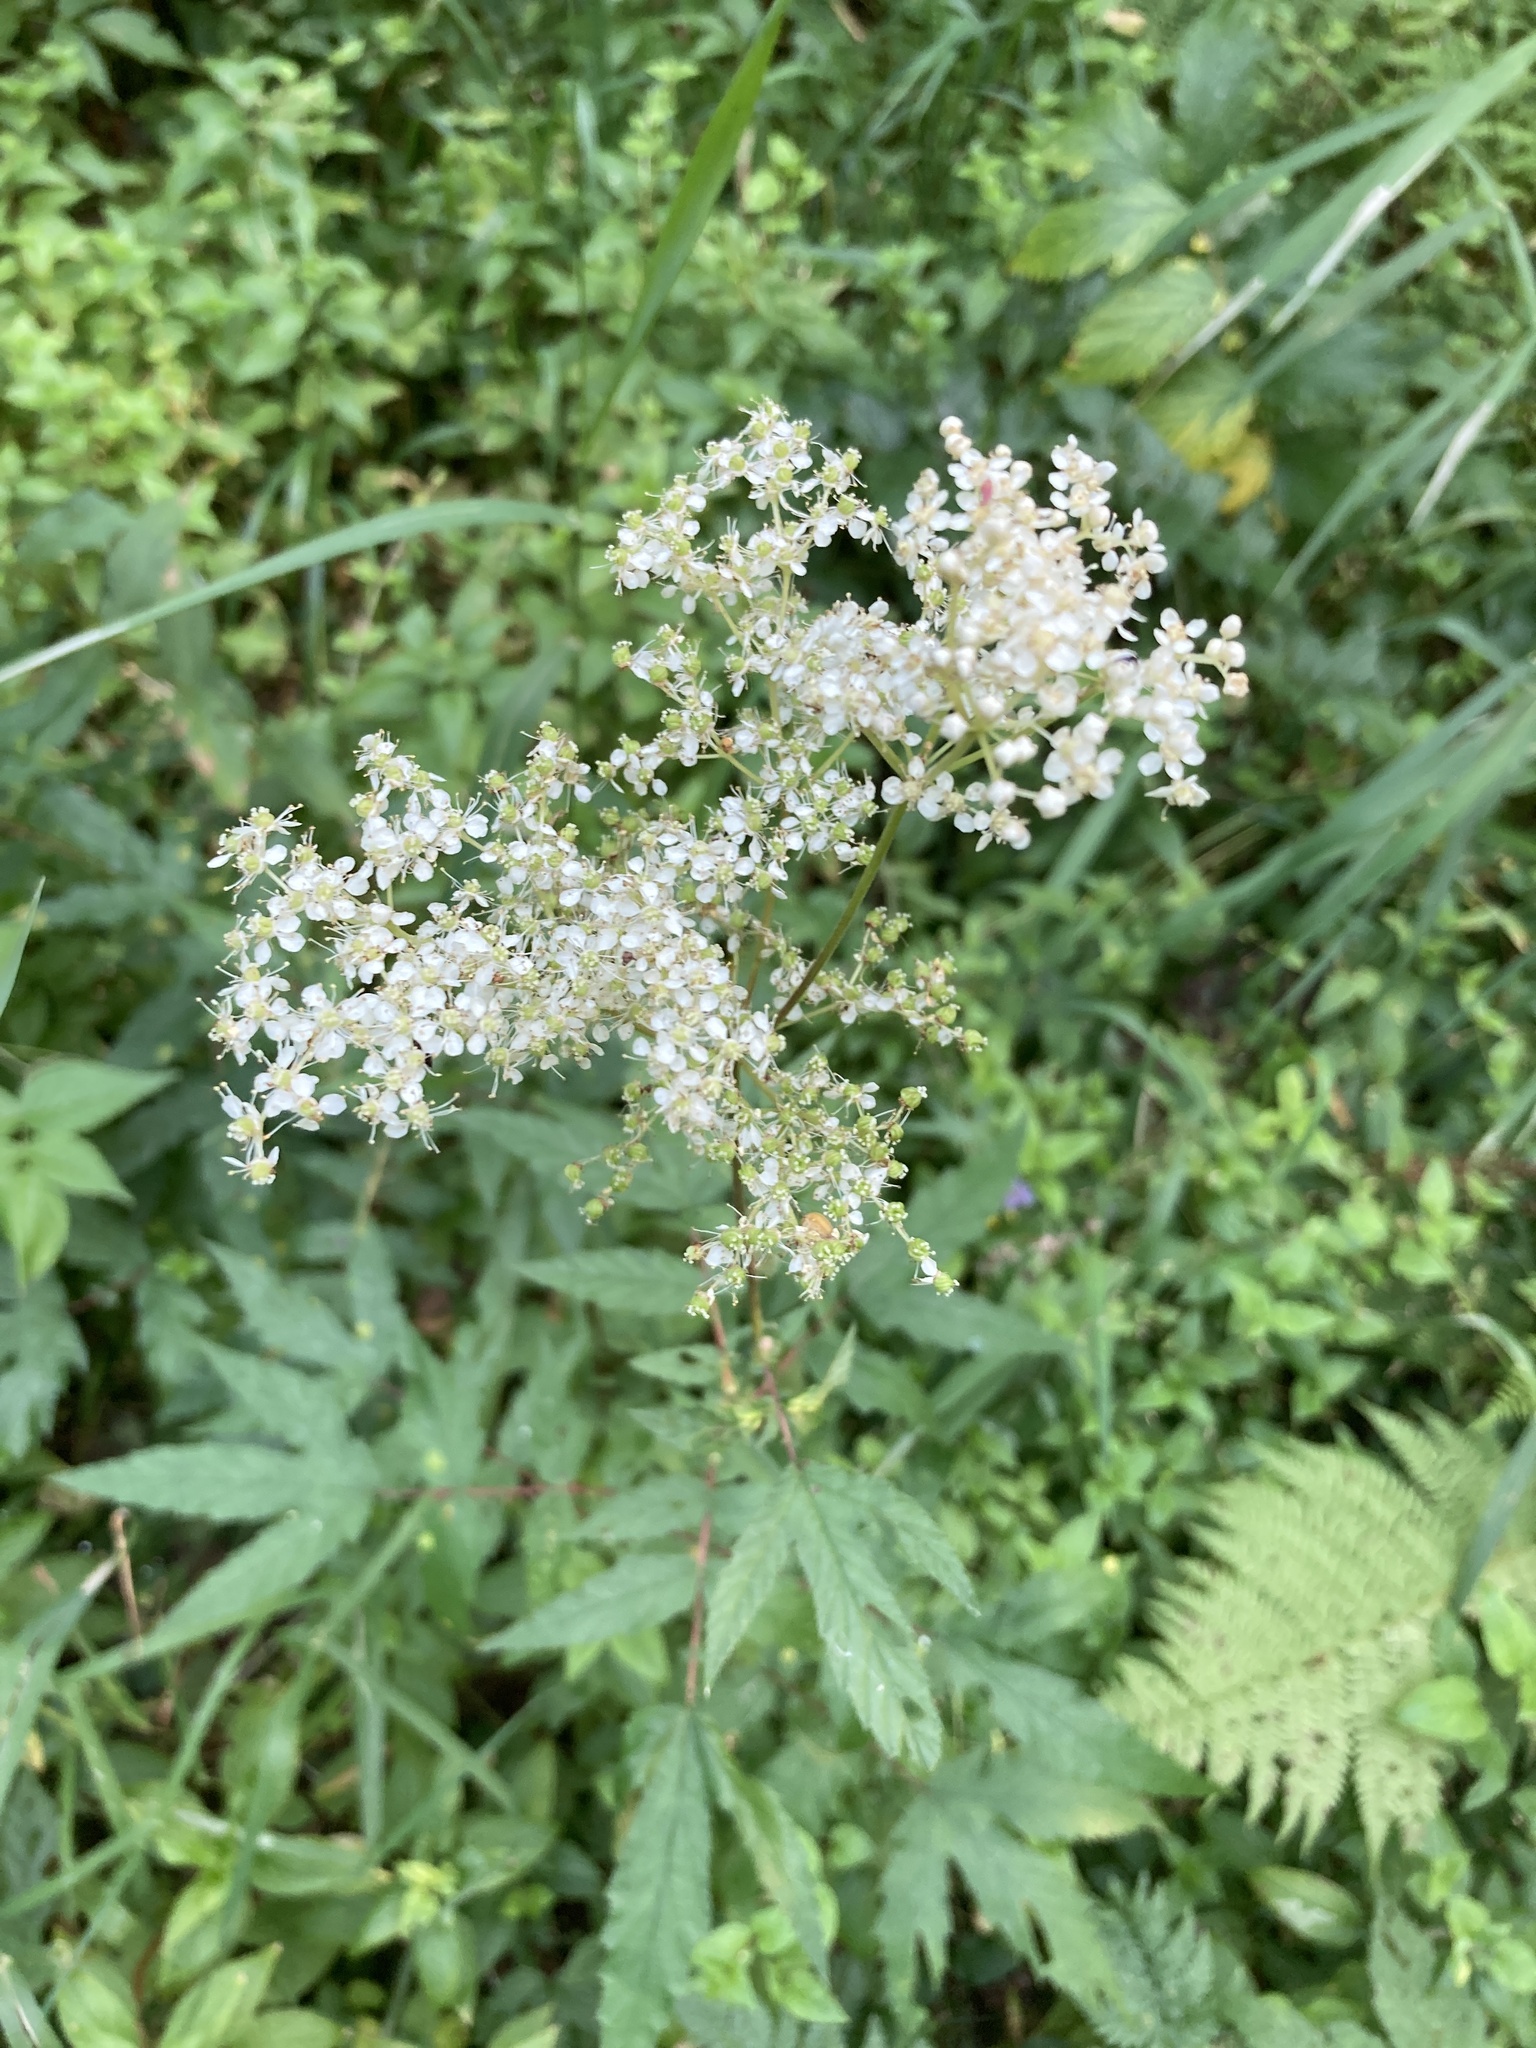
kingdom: Plantae
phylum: Tracheophyta
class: Magnoliopsida
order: Rosales
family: Rosaceae
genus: Filipendula
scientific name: Filipendula ulmaria
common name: Meadowsweet
